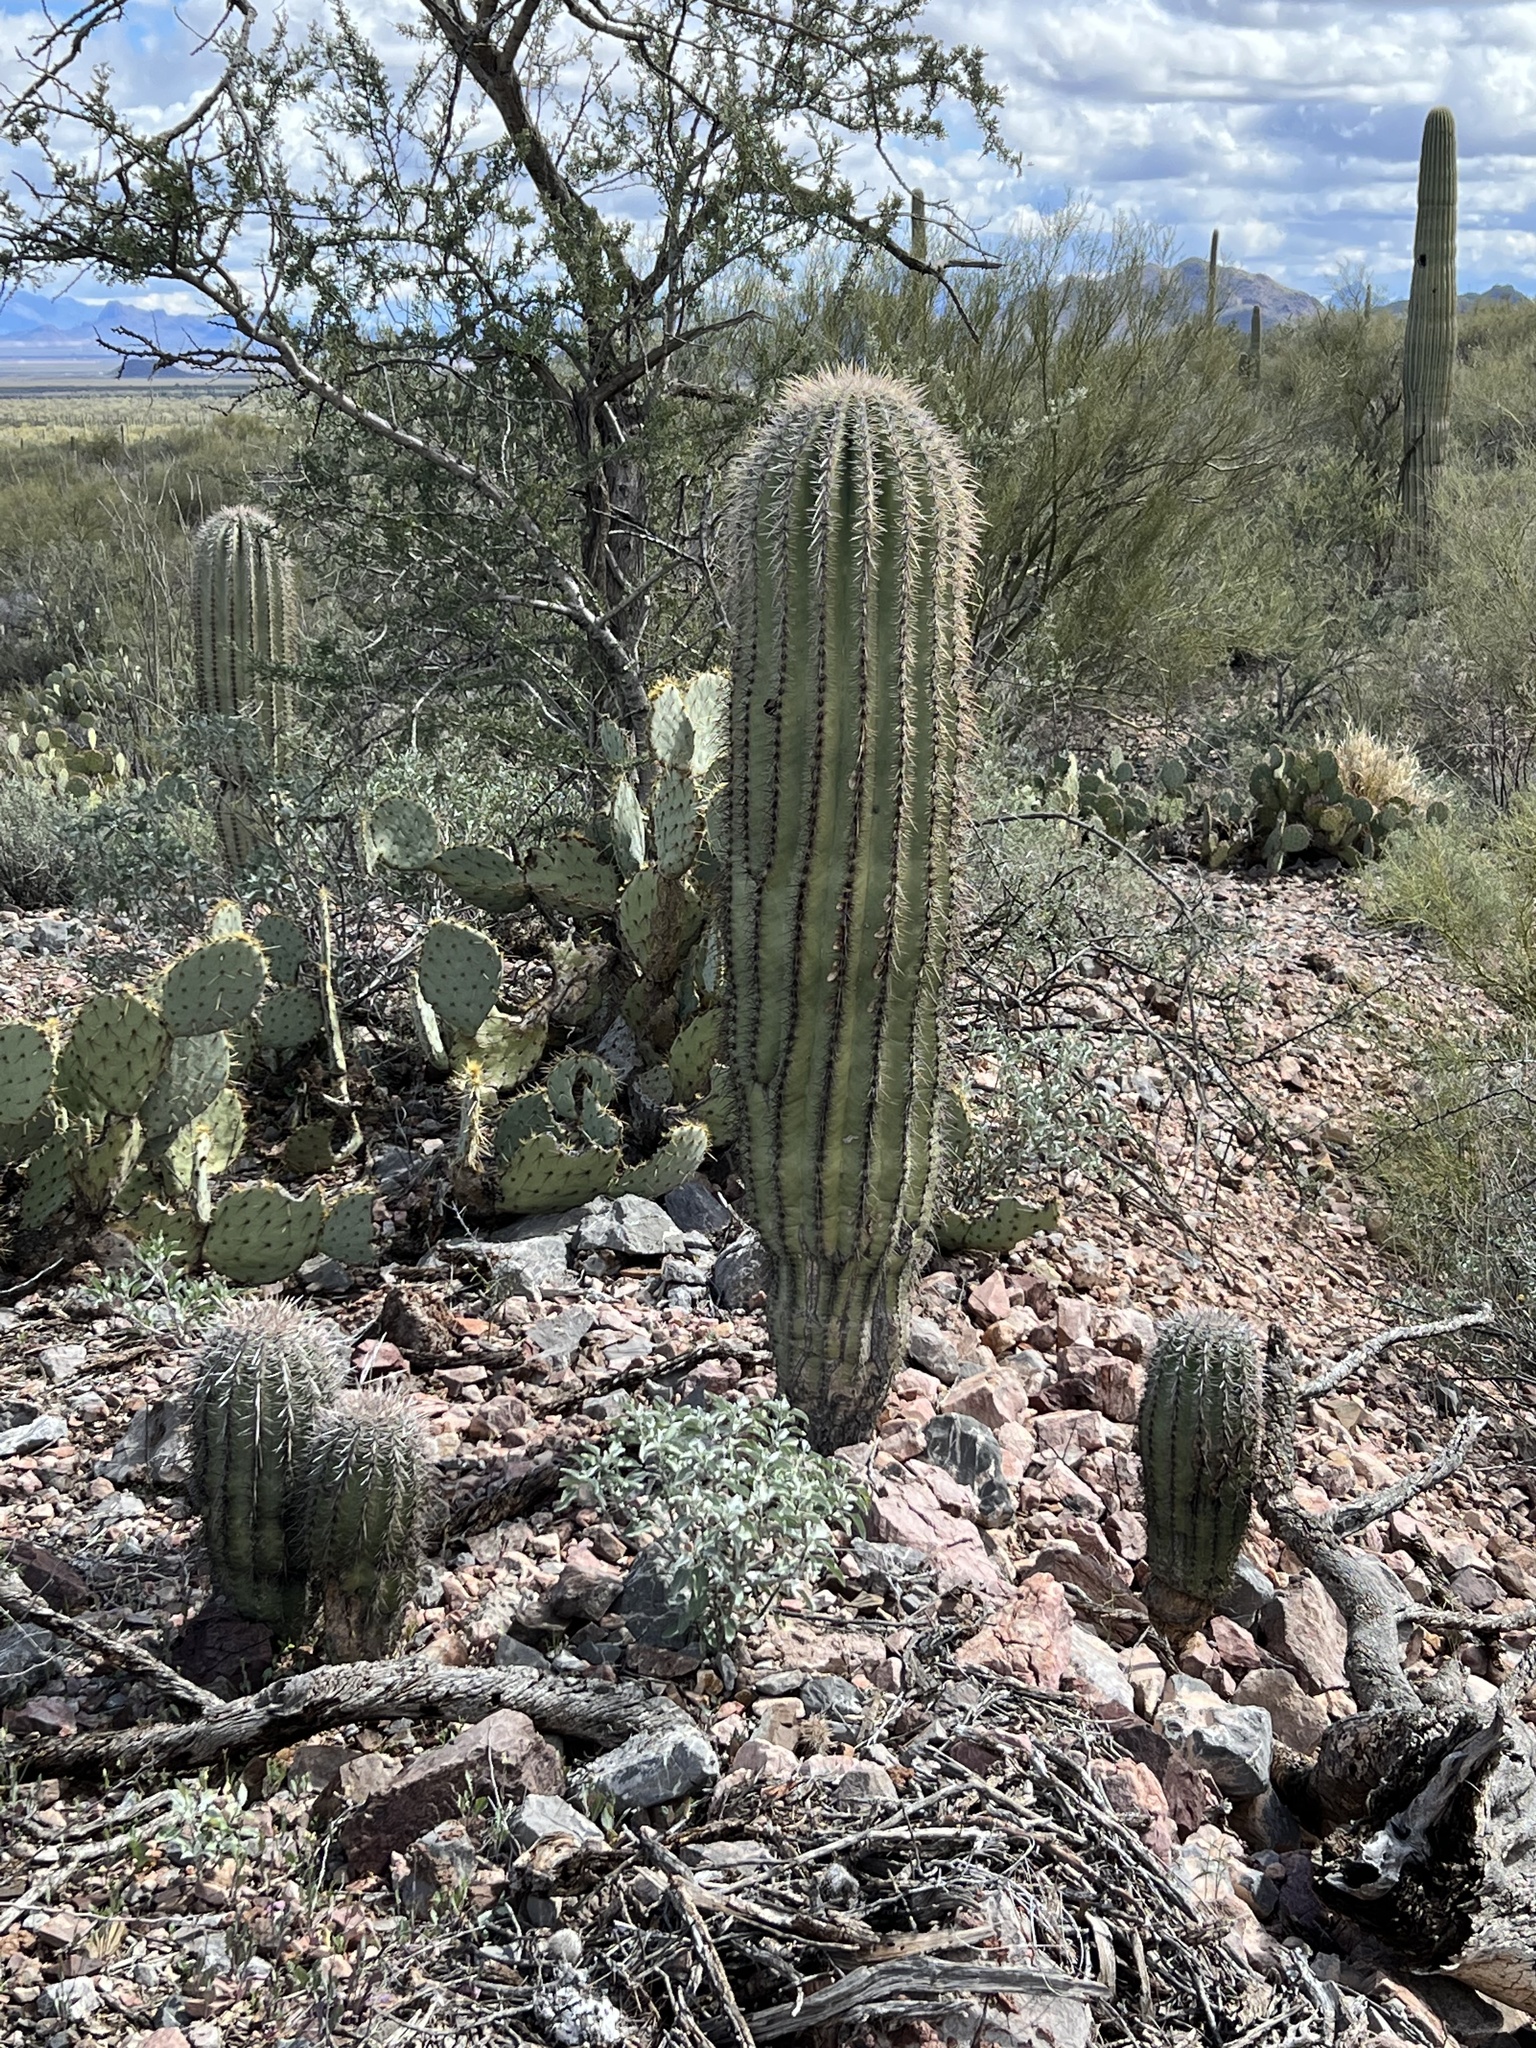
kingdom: Plantae
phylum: Tracheophyta
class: Magnoliopsida
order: Caryophyllales
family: Cactaceae
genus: Carnegiea
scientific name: Carnegiea gigantea
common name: Saguaro
